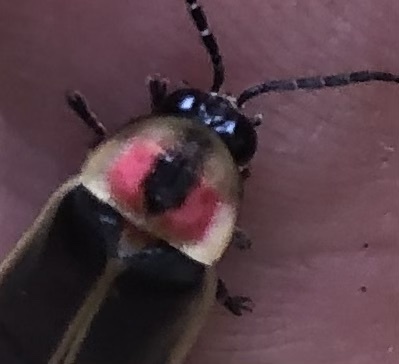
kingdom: Animalia
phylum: Arthropoda
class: Insecta
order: Coleoptera
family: Lampyridae
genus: Photinus
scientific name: Photinus pyralis
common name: Big dipper firefly
